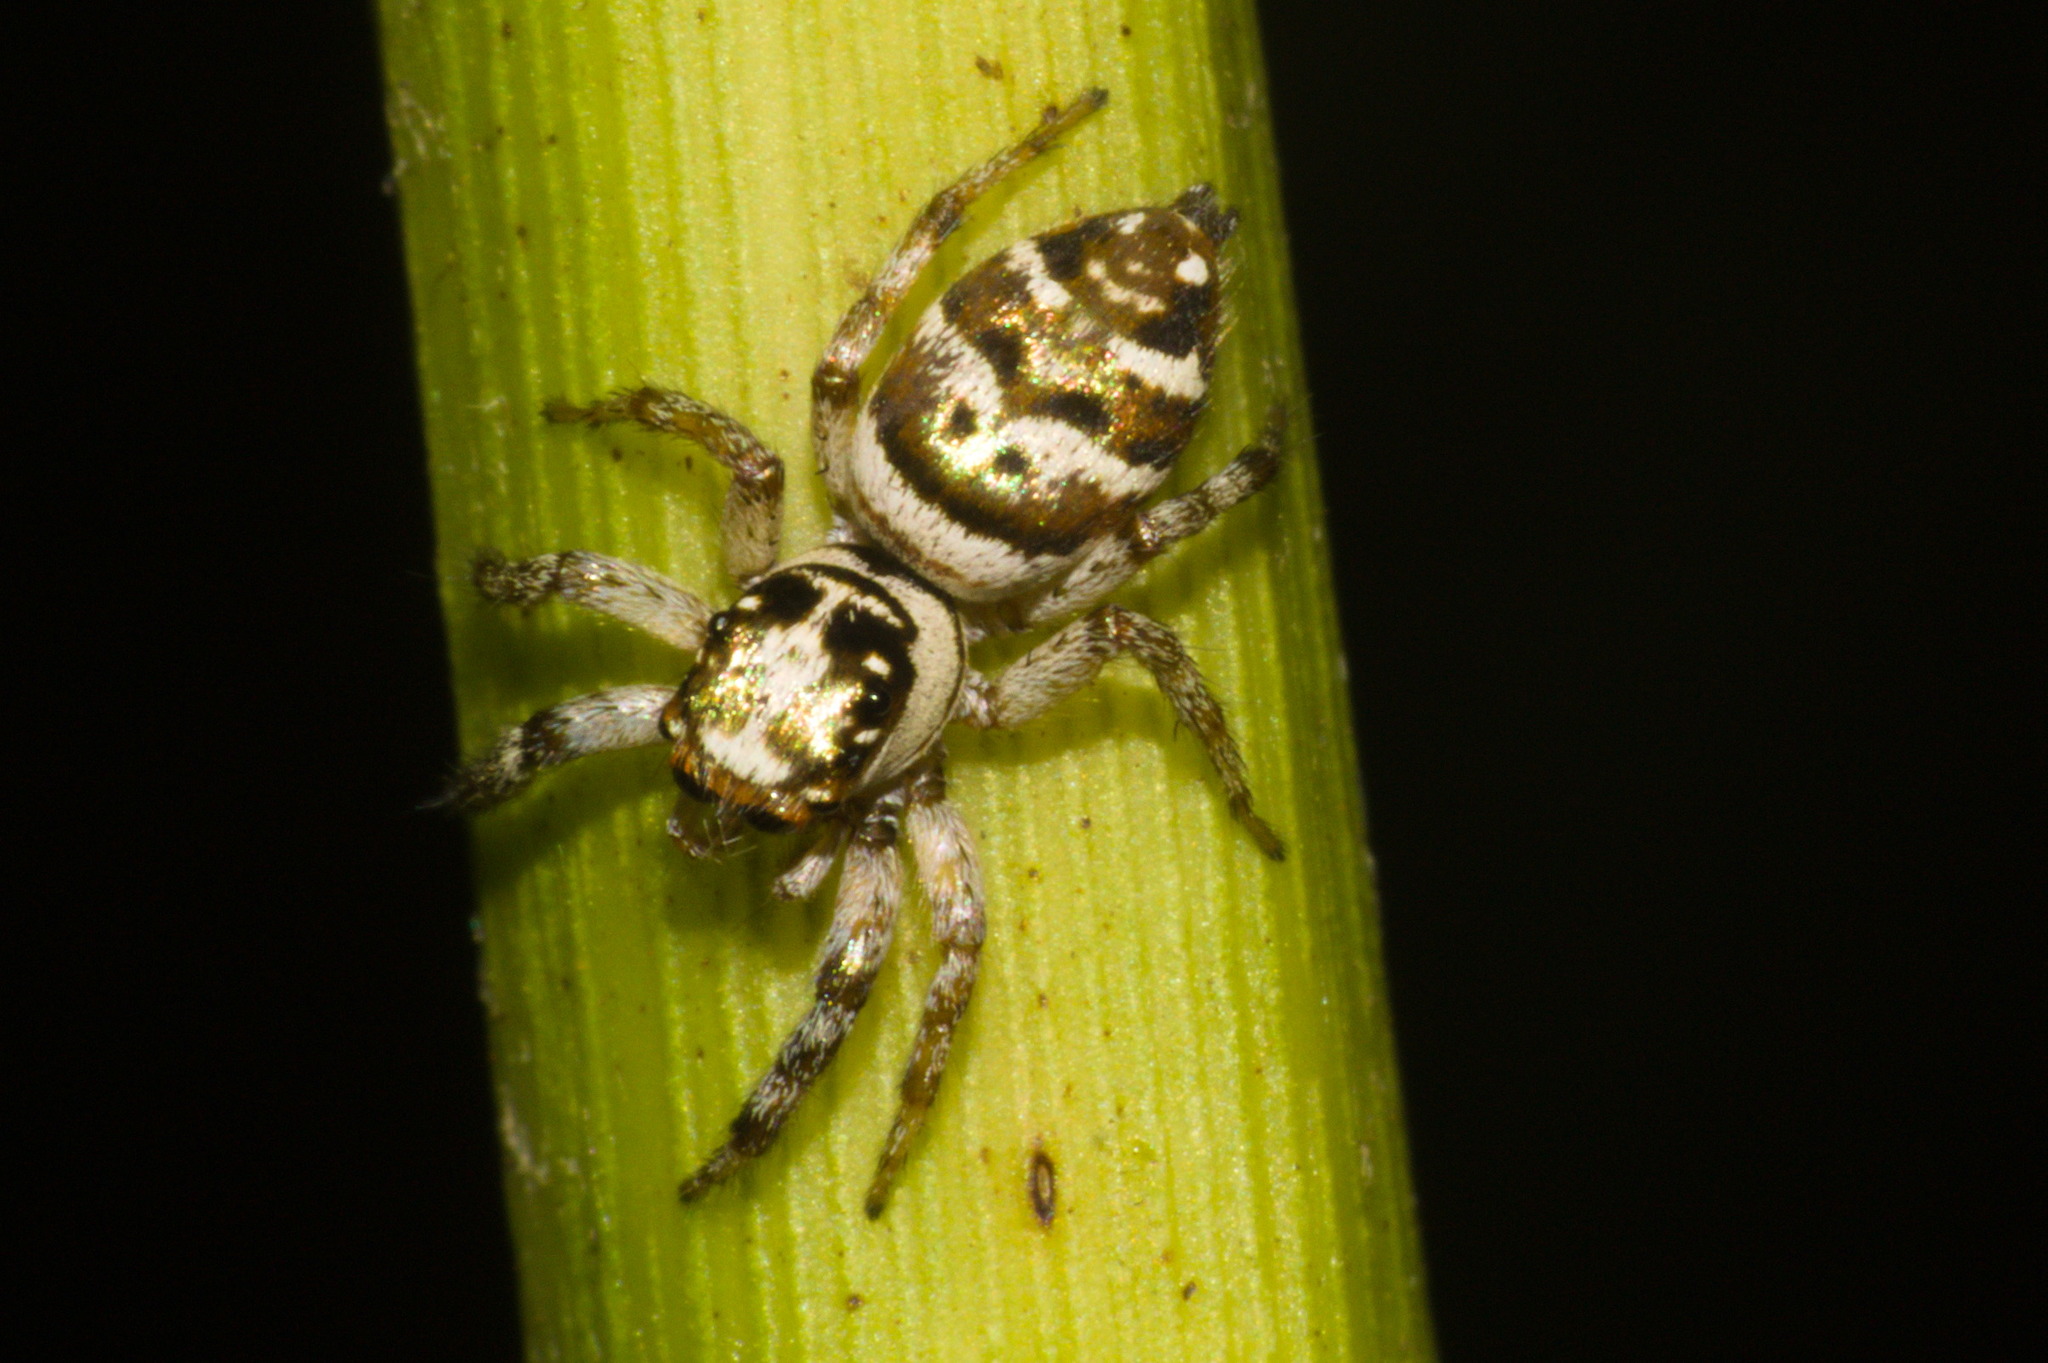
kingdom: Animalia
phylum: Arthropoda
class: Arachnida
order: Araneae
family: Salticidae
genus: Philira
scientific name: Philira micans
